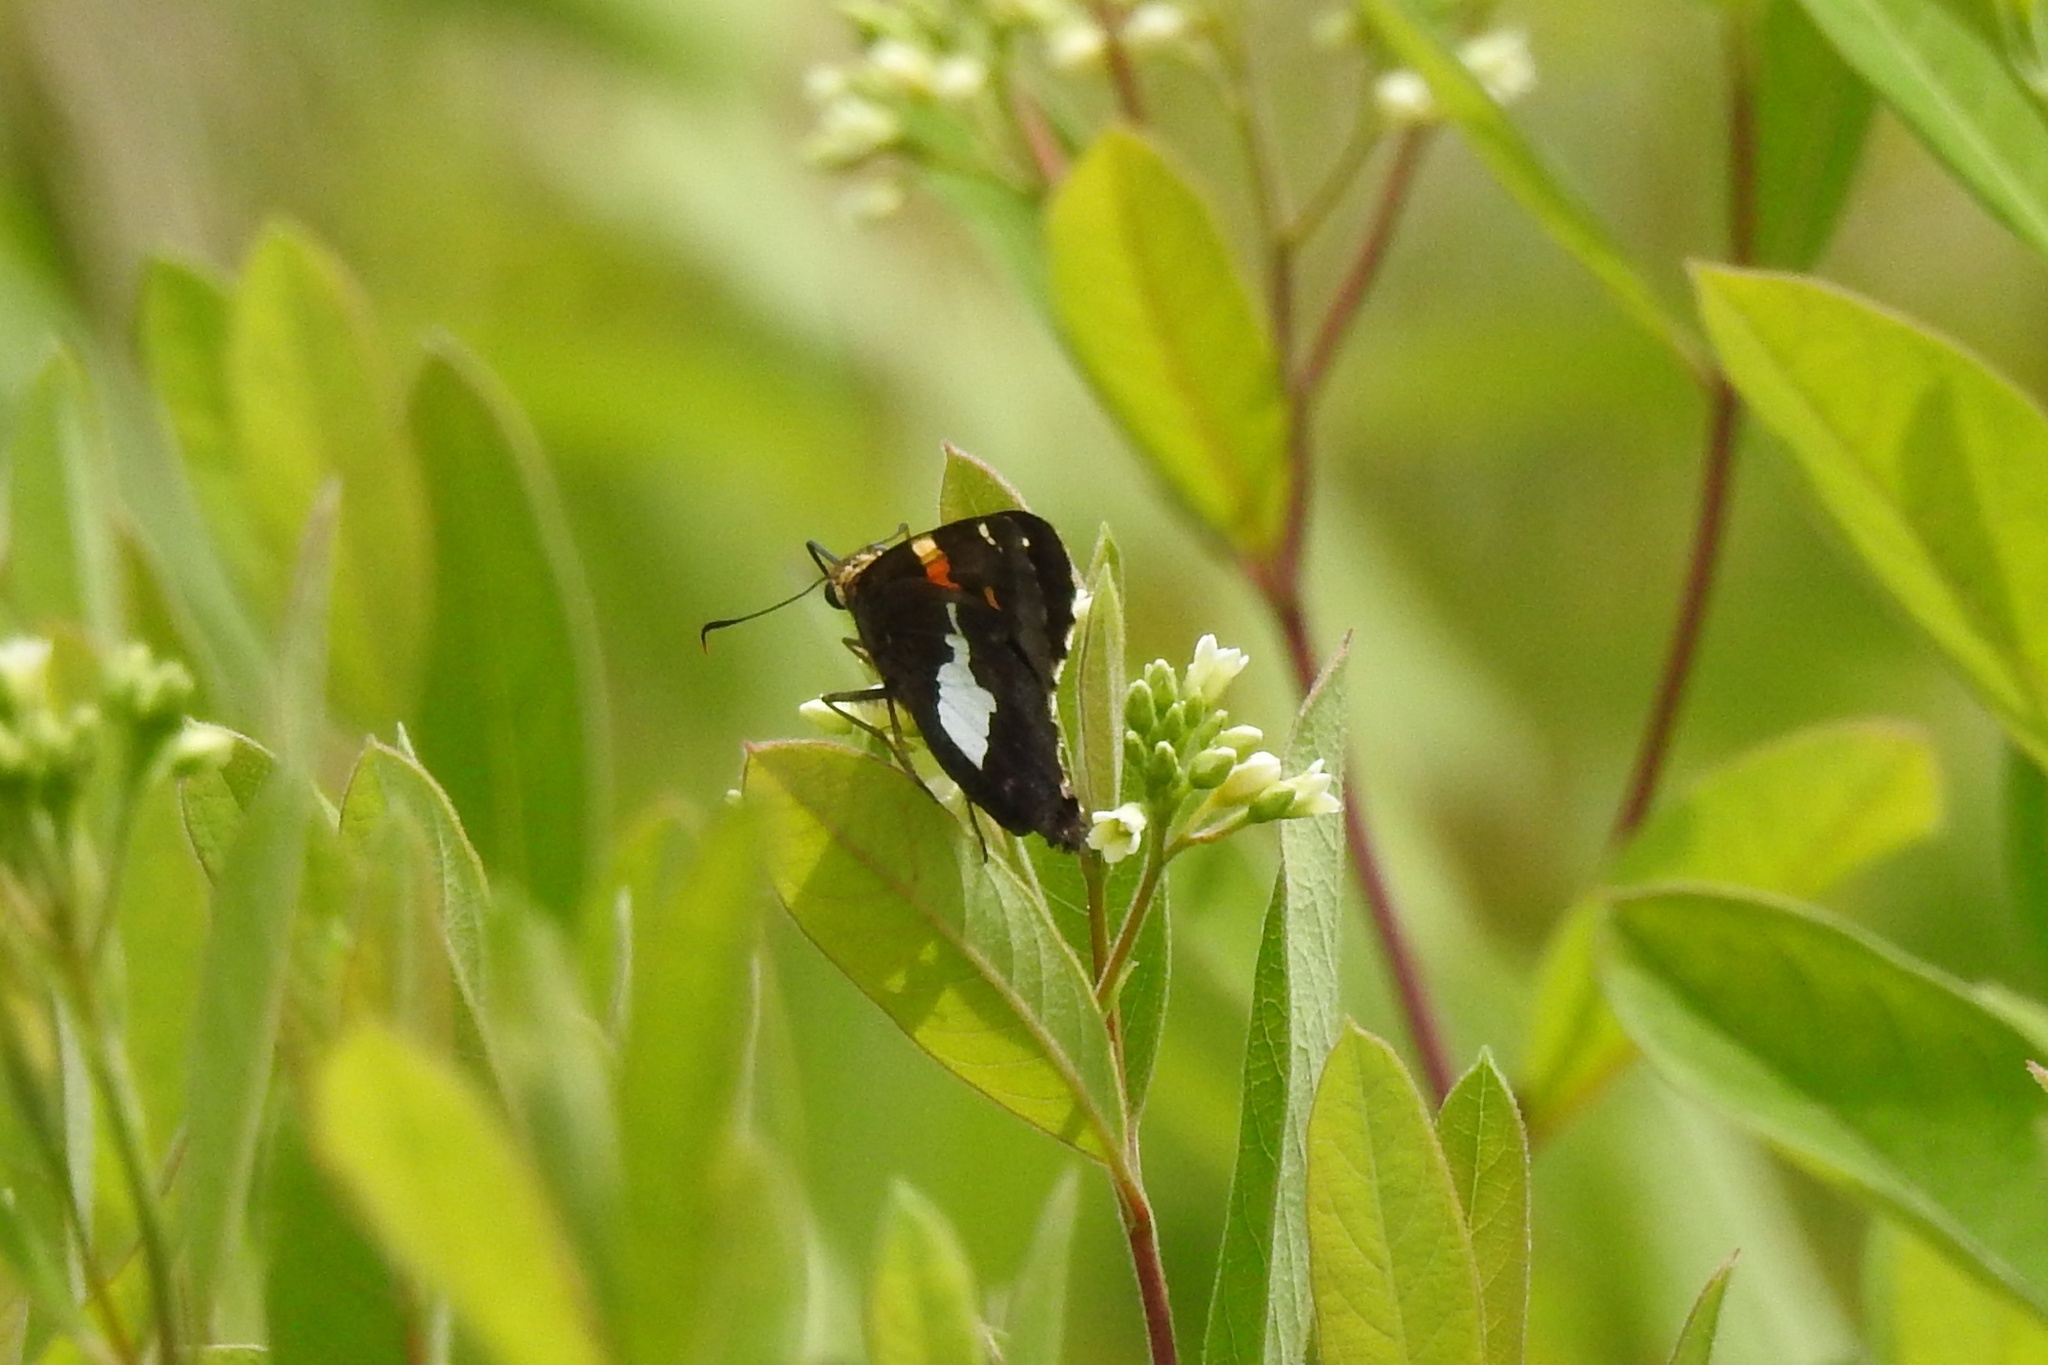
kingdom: Animalia
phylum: Arthropoda
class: Insecta
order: Lepidoptera
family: Hesperiidae
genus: Epargyreus
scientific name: Epargyreus clarus
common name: Silver-spotted skipper
